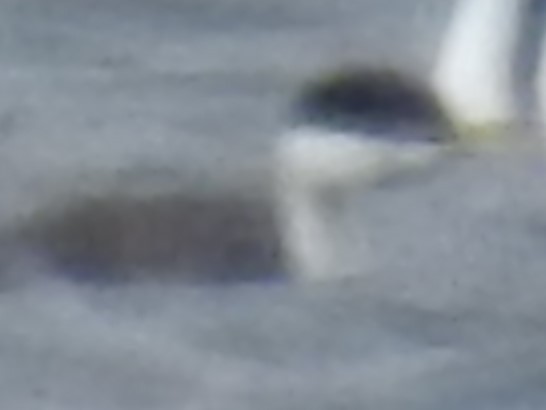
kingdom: Animalia
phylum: Chordata
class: Aves
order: Podicipediformes
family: Podicipedidae
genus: Aechmophorus
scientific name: Aechmophorus occidentalis
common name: Western grebe
